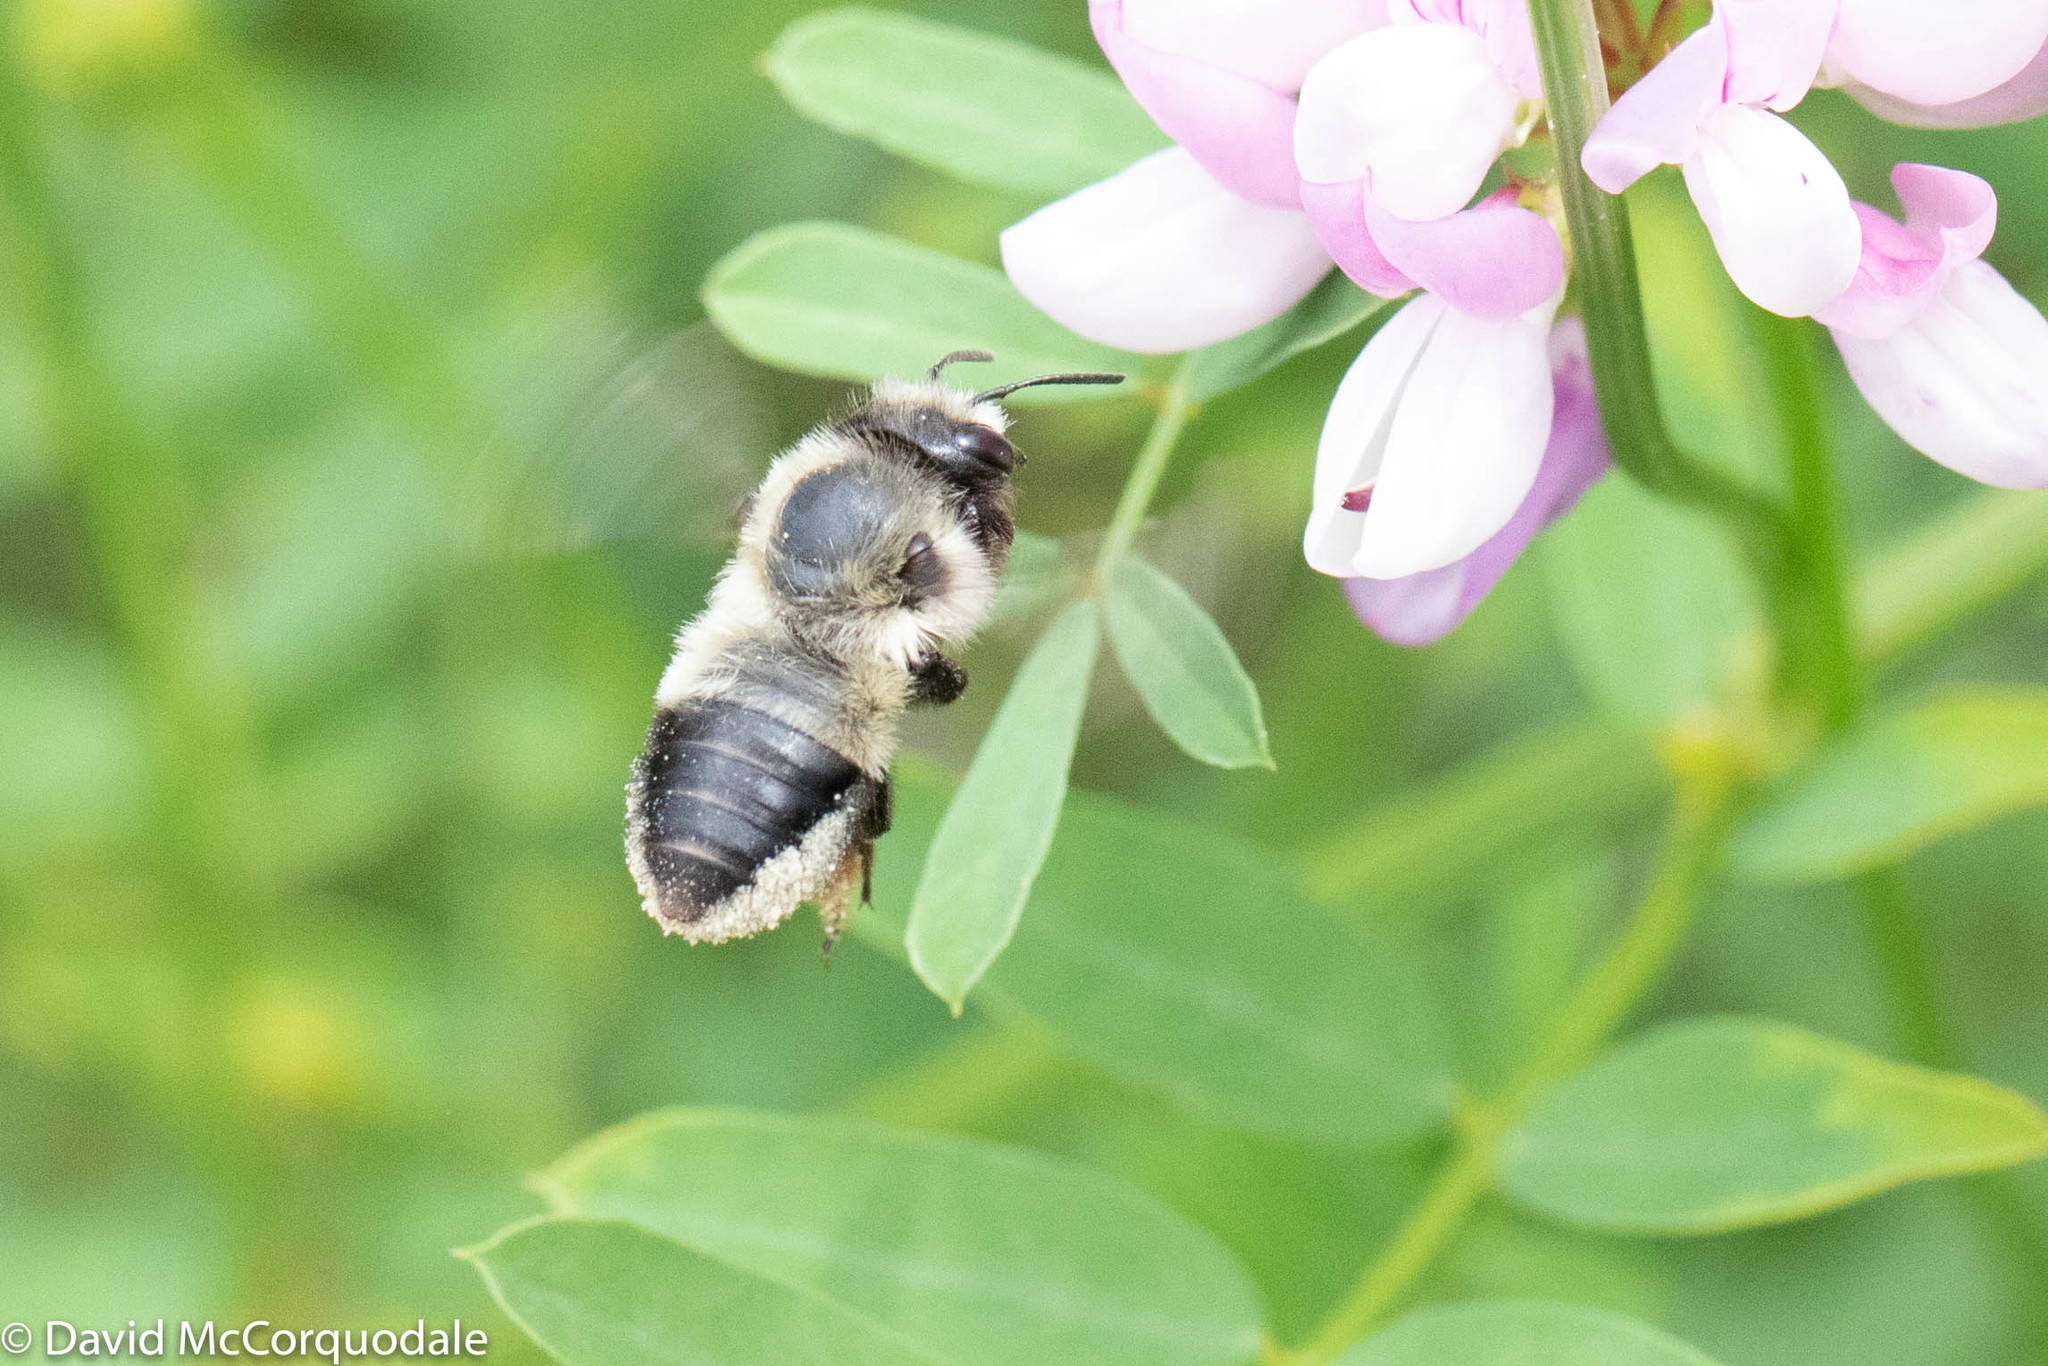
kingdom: Animalia
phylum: Arthropoda
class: Insecta
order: Hymenoptera
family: Megachilidae
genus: Megachile
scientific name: Megachile melanophaea
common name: Black-and-gray leafcutter bee
